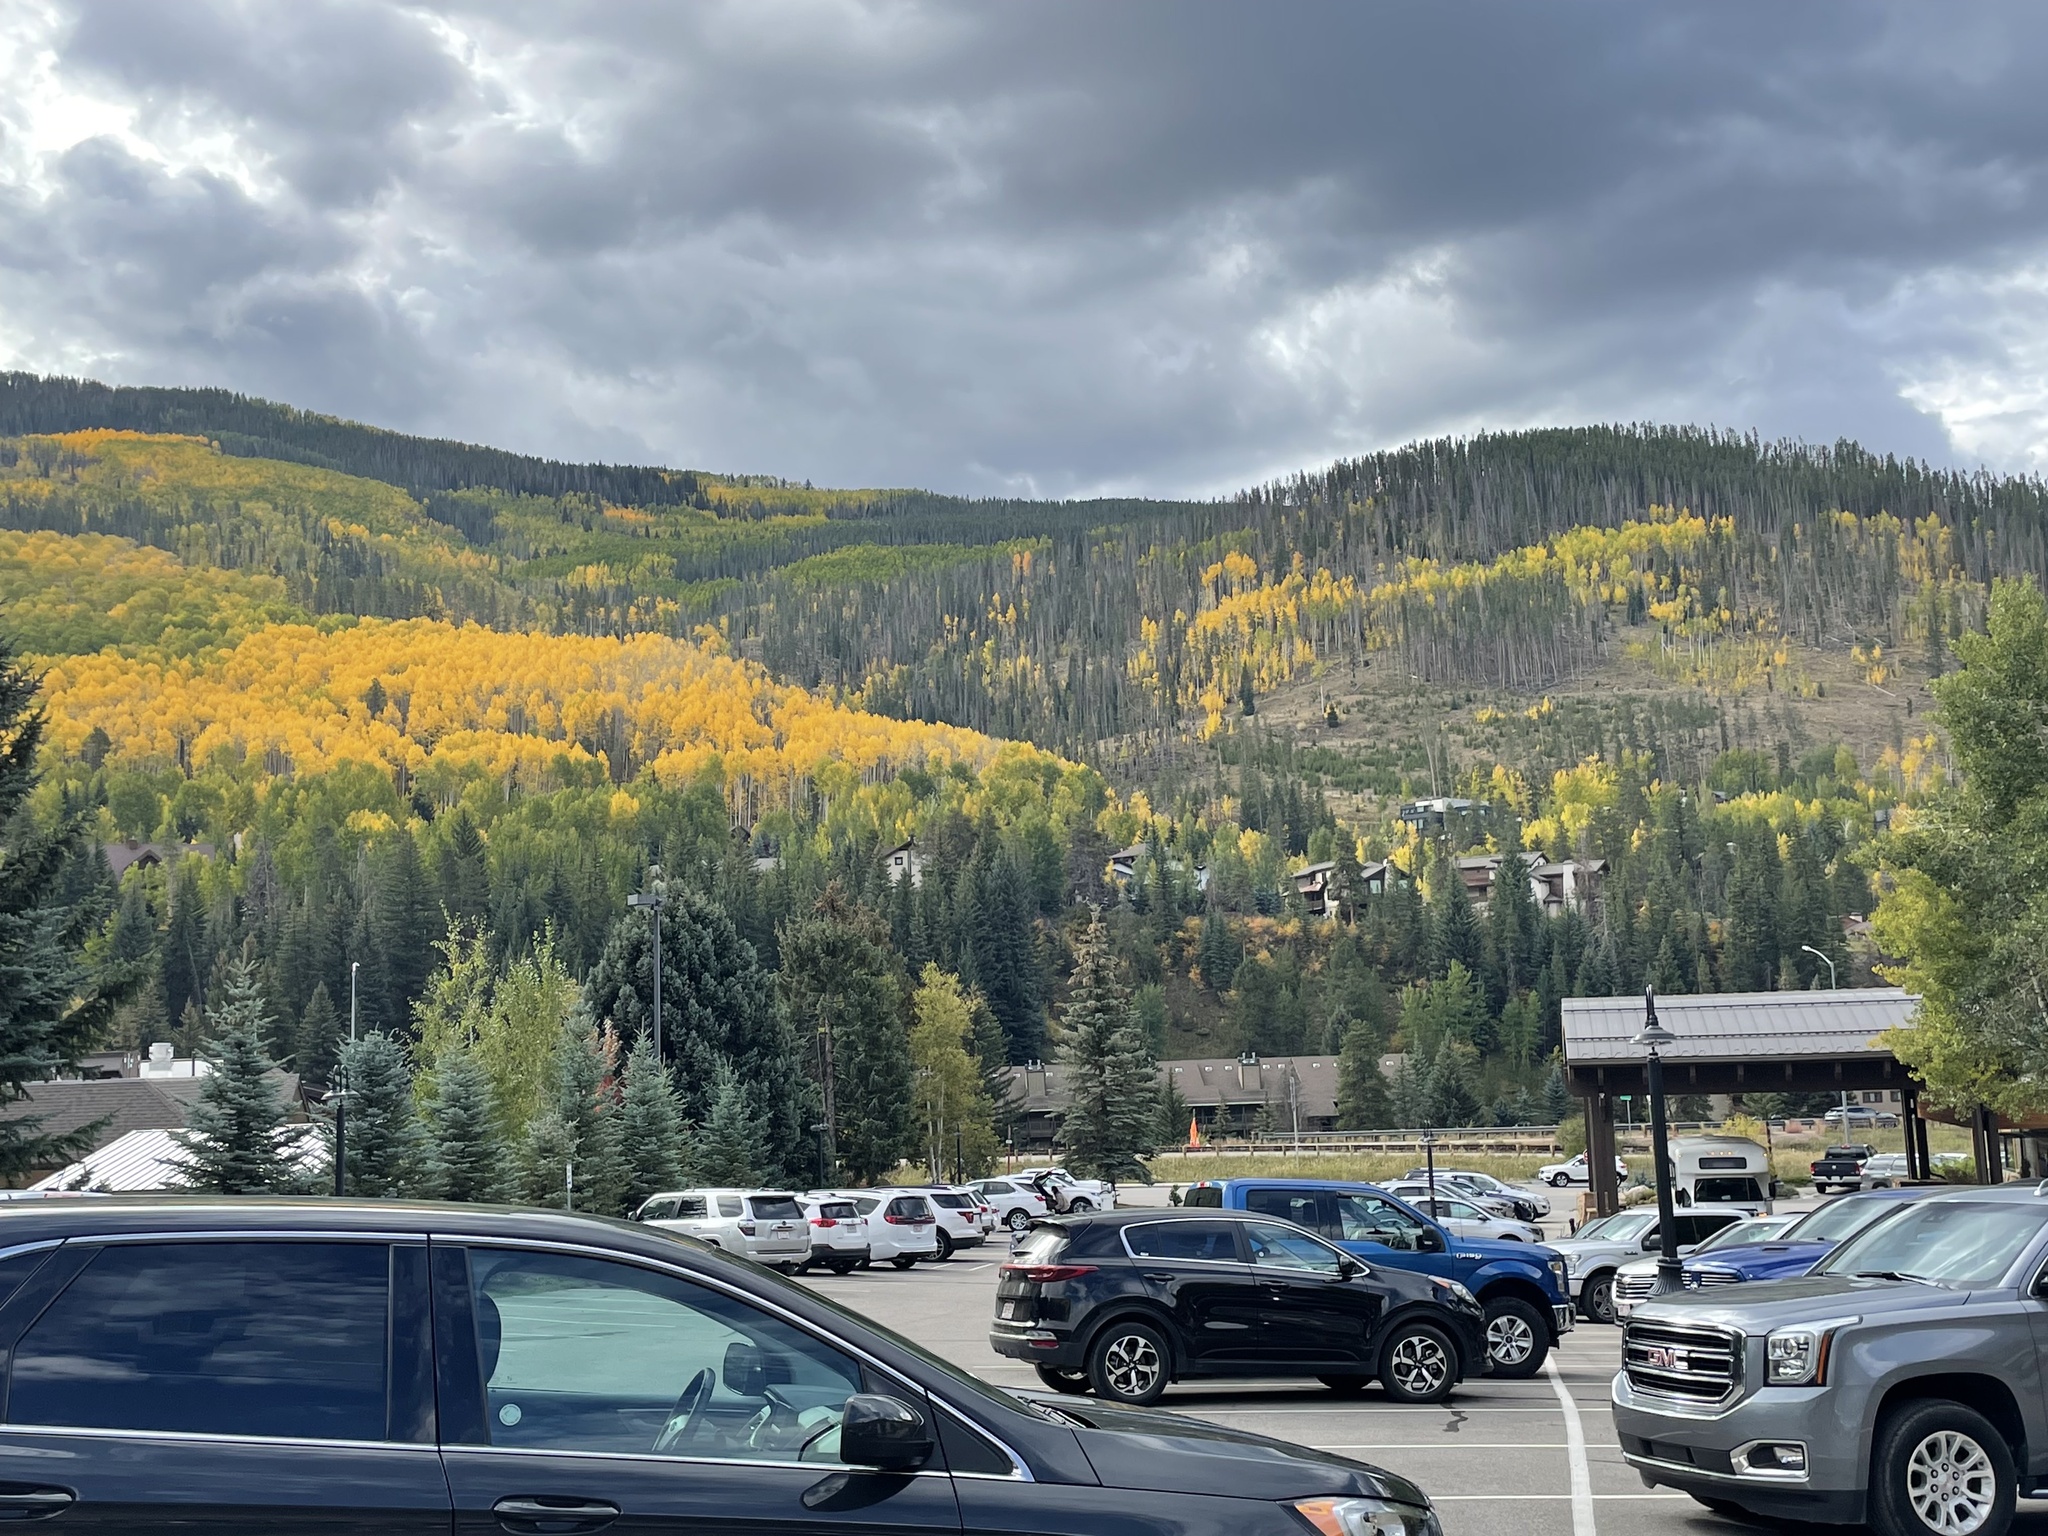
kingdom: Plantae
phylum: Tracheophyta
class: Magnoliopsida
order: Malpighiales
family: Salicaceae
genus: Populus
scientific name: Populus tremuloides
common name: Quaking aspen
